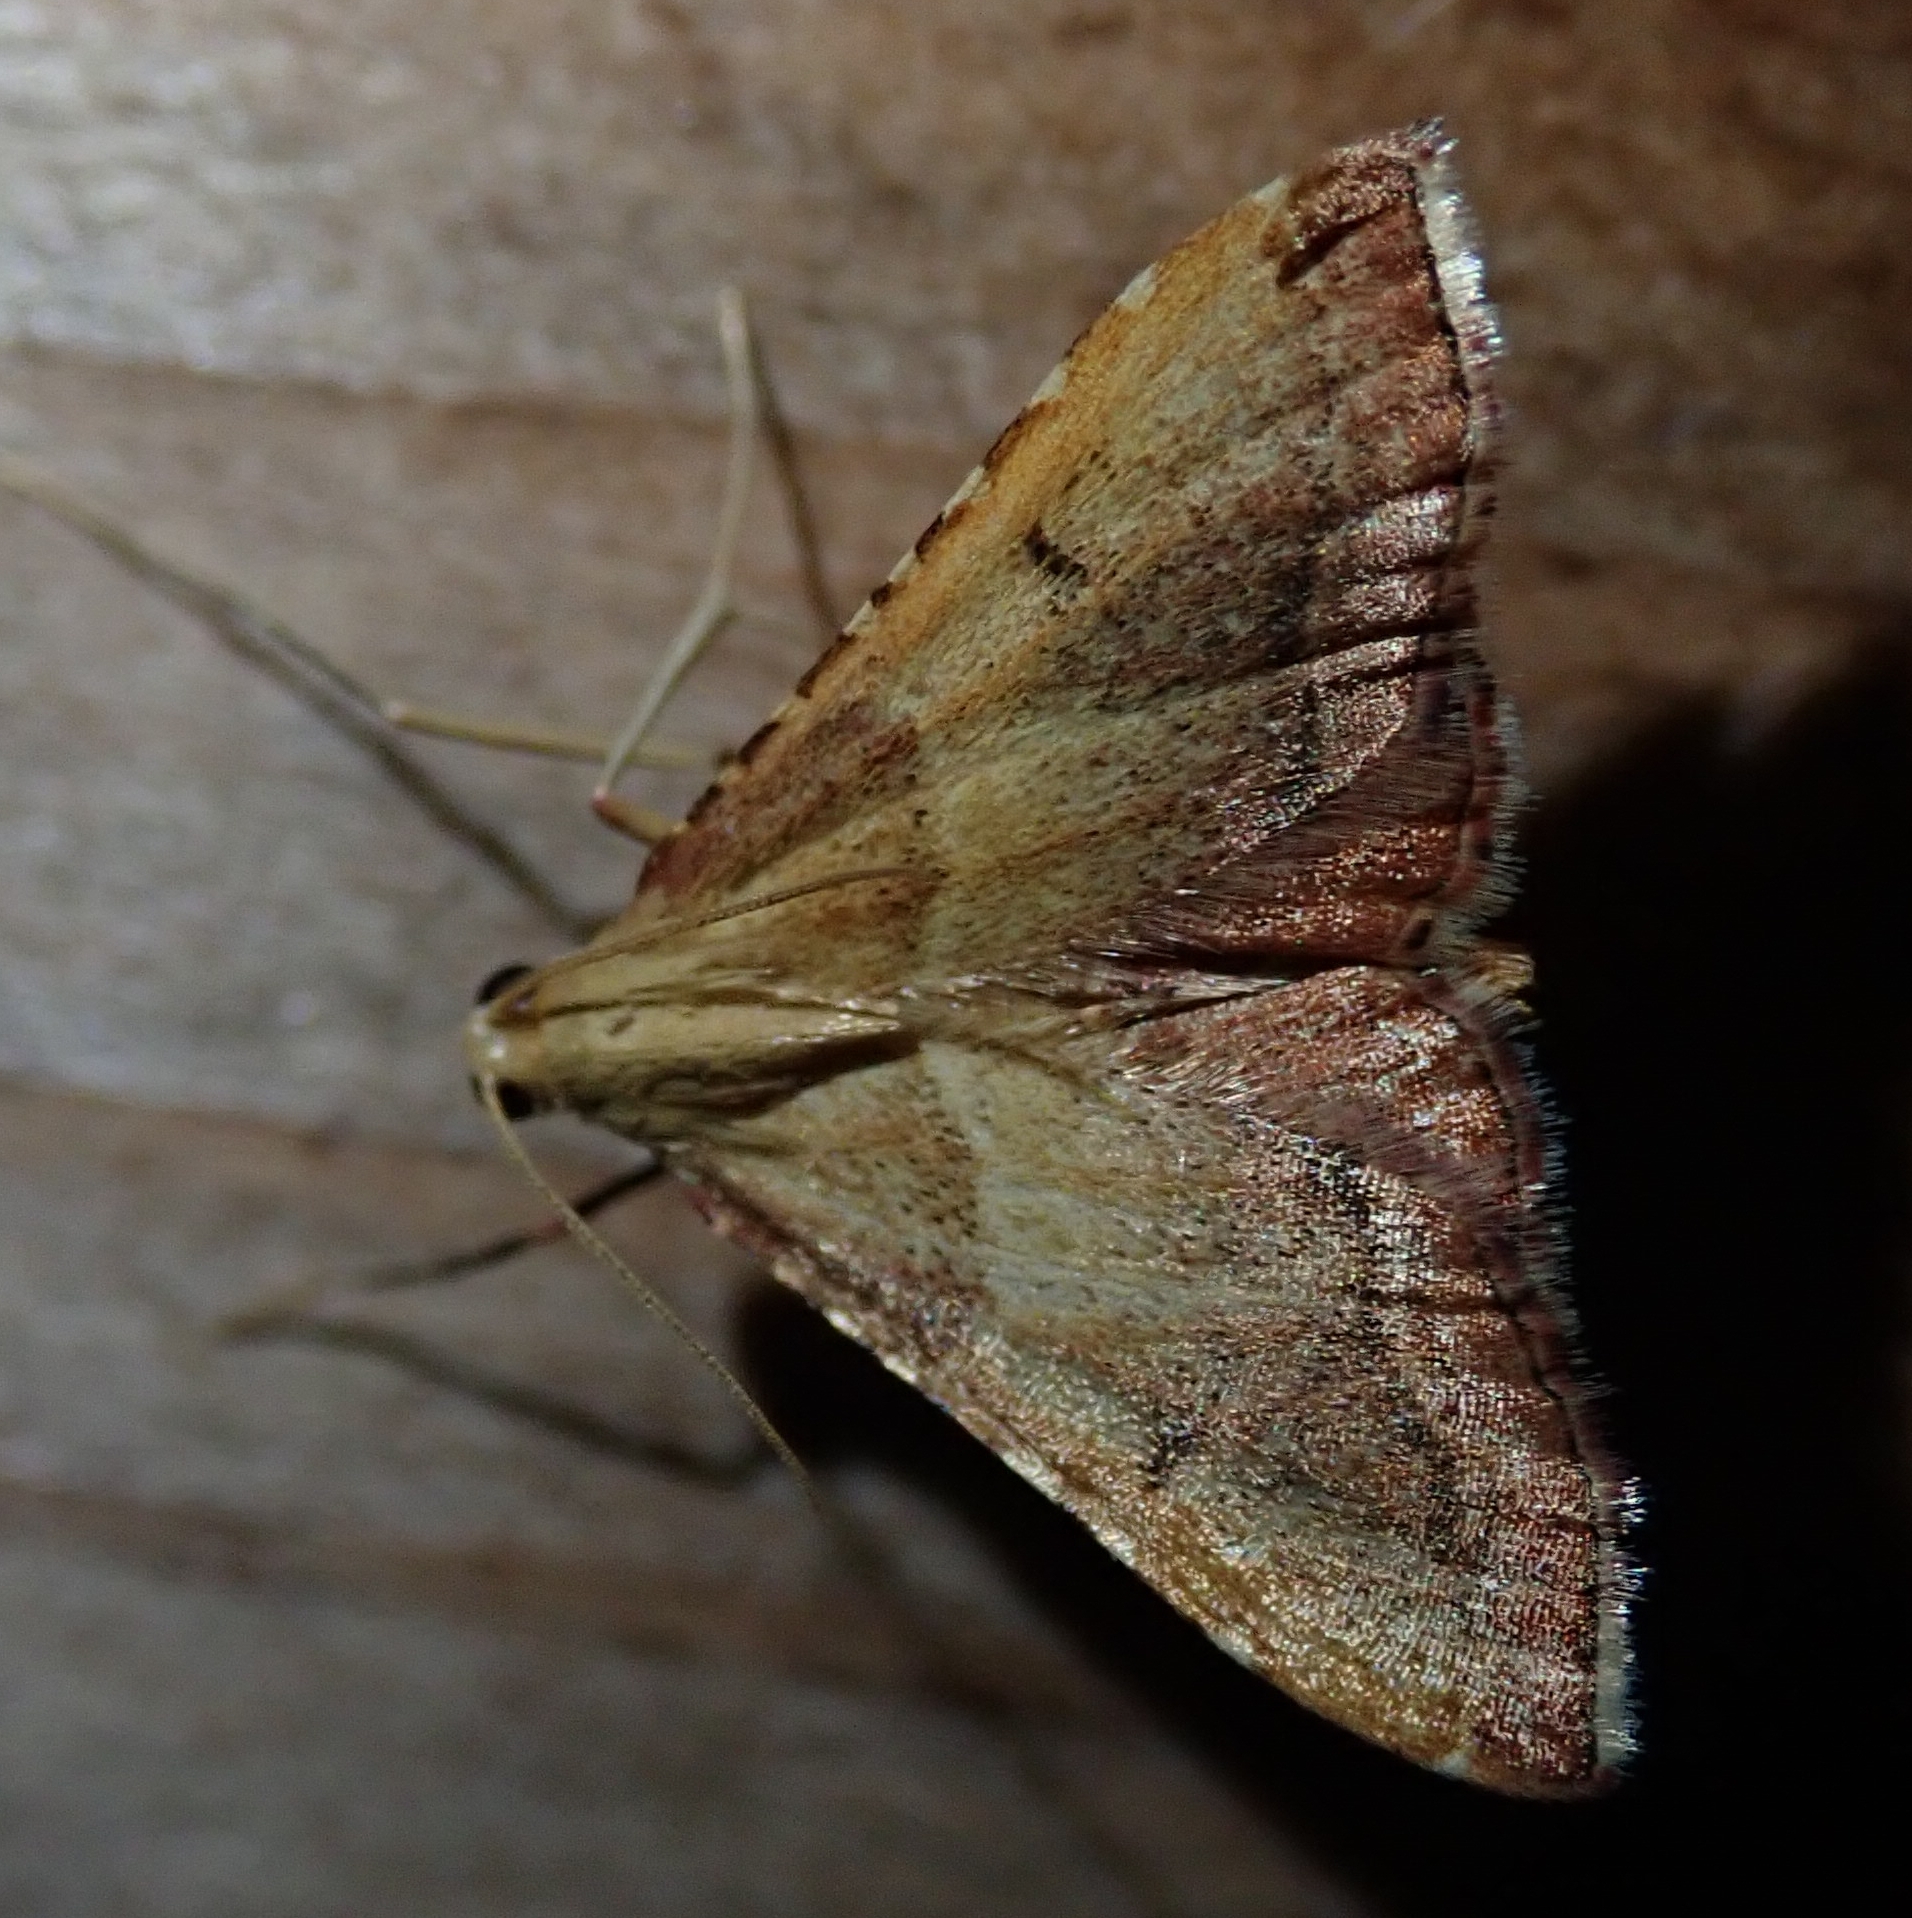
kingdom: Animalia
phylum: Arthropoda
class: Insecta
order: Lepidoptera
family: Pyralidae
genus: Endotricha
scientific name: Endotricha flammealis
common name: Rosy tabby
